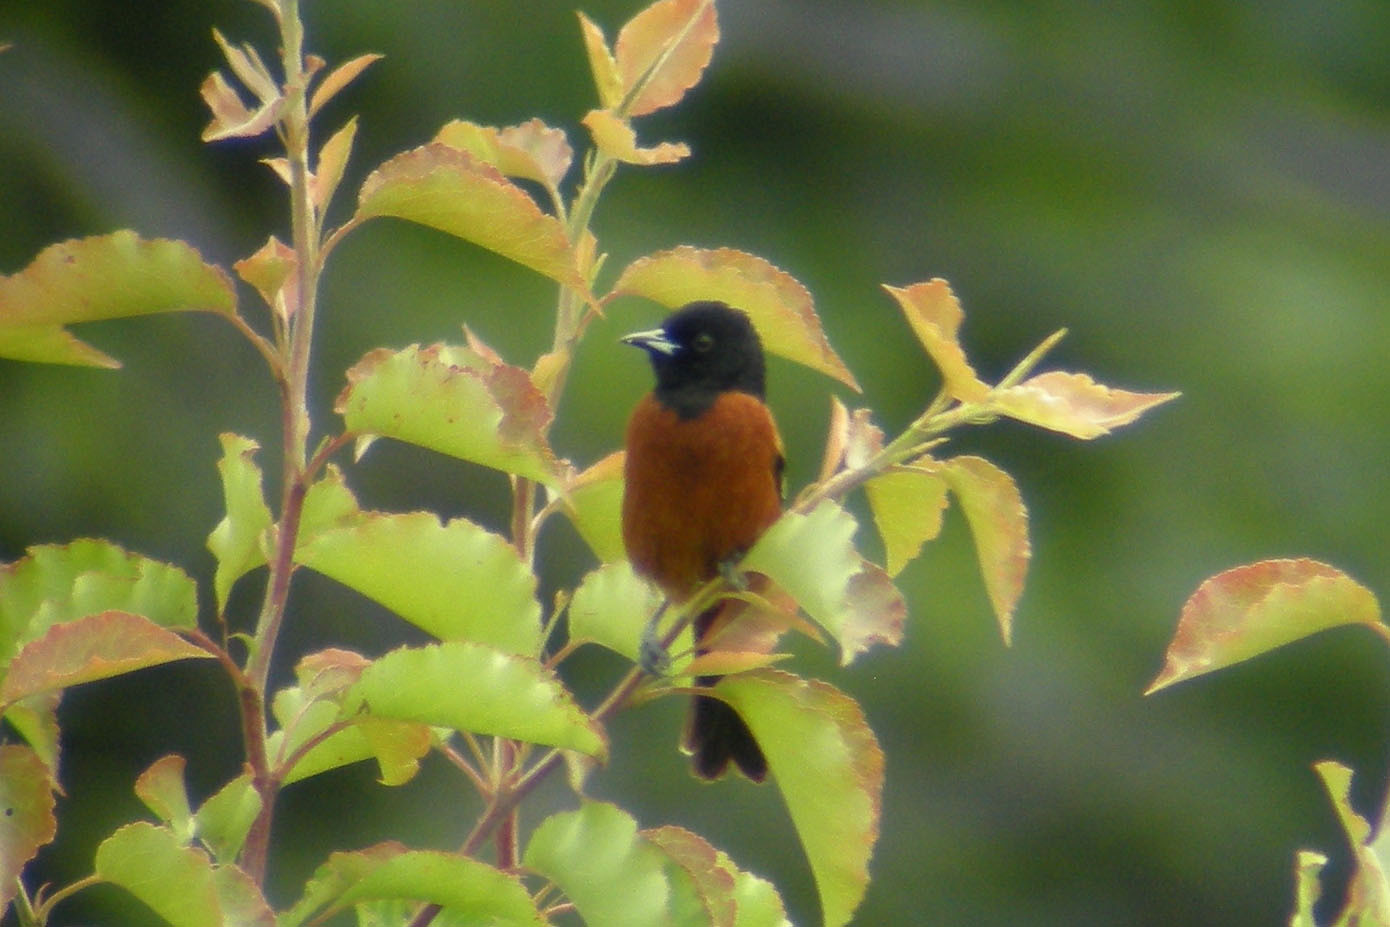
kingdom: Animalia
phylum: Chordata
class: Aves
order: Passeriformes
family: Icteridae
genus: Icterus
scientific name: Icterus spurius
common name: Orchard oriole
